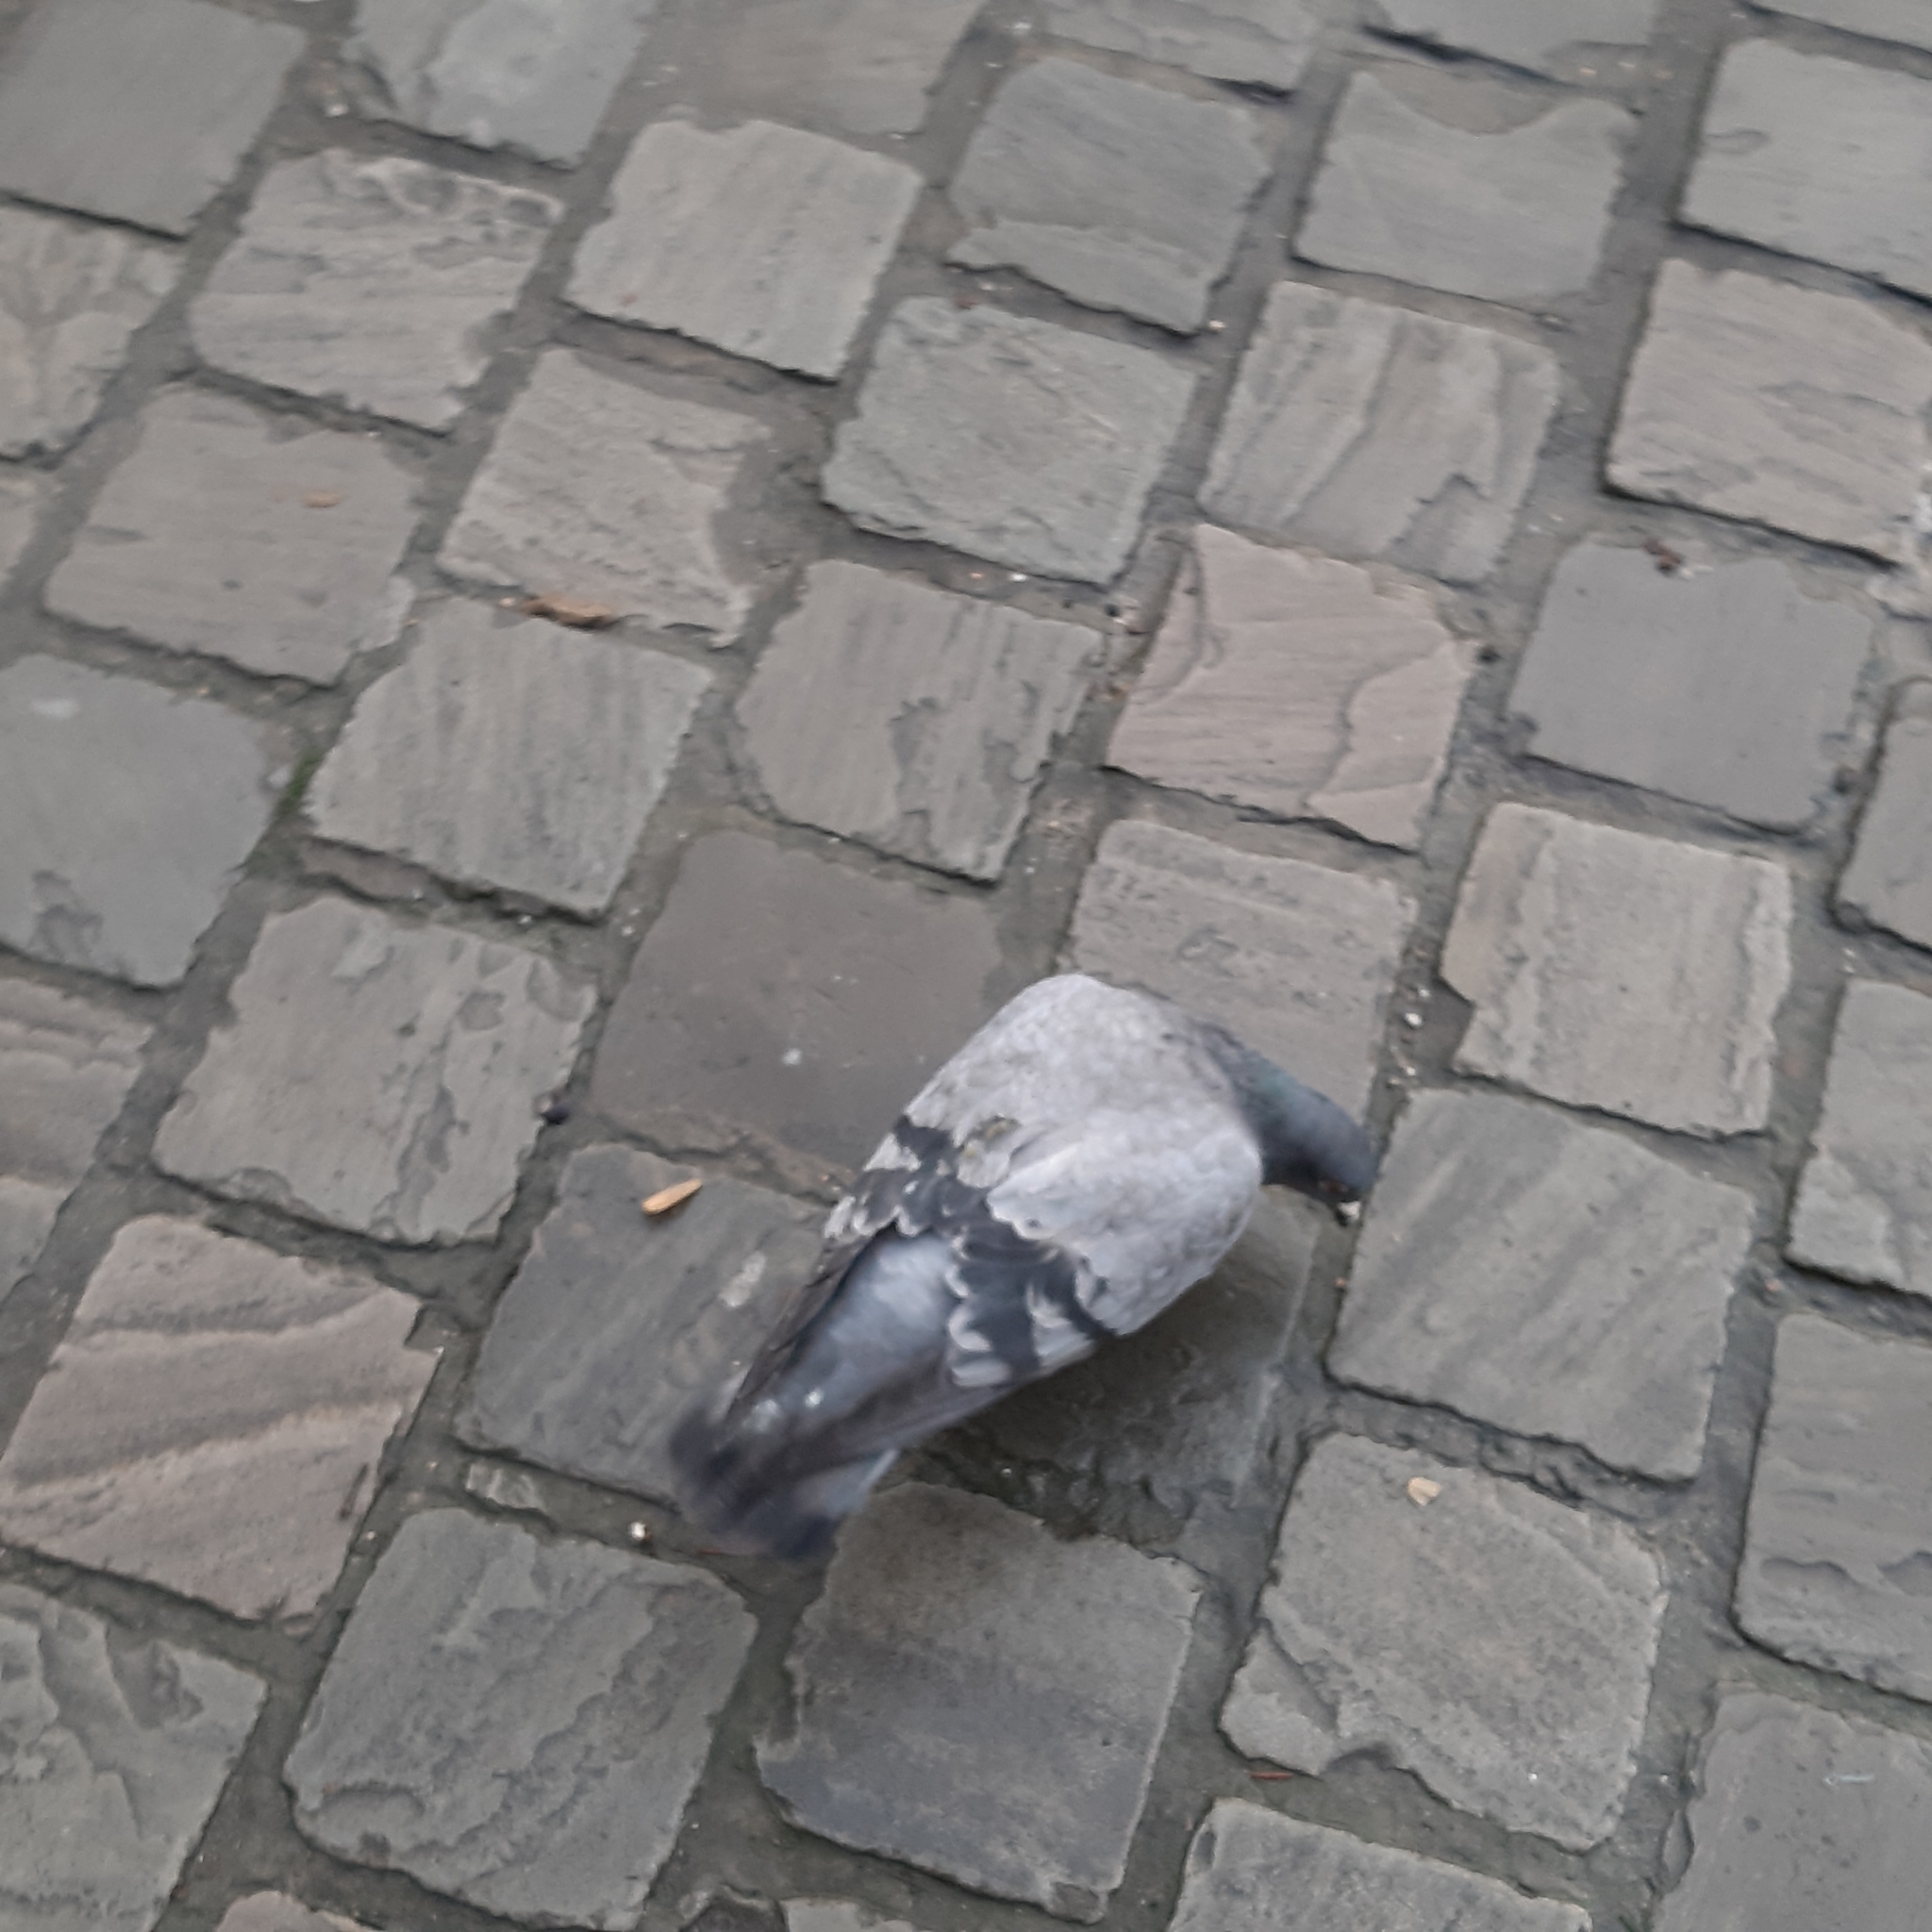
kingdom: Animalia
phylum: Chordata
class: Aves
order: Columbiformes
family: Columbidae
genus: Columba
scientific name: Columba livia
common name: Rock pigeon
